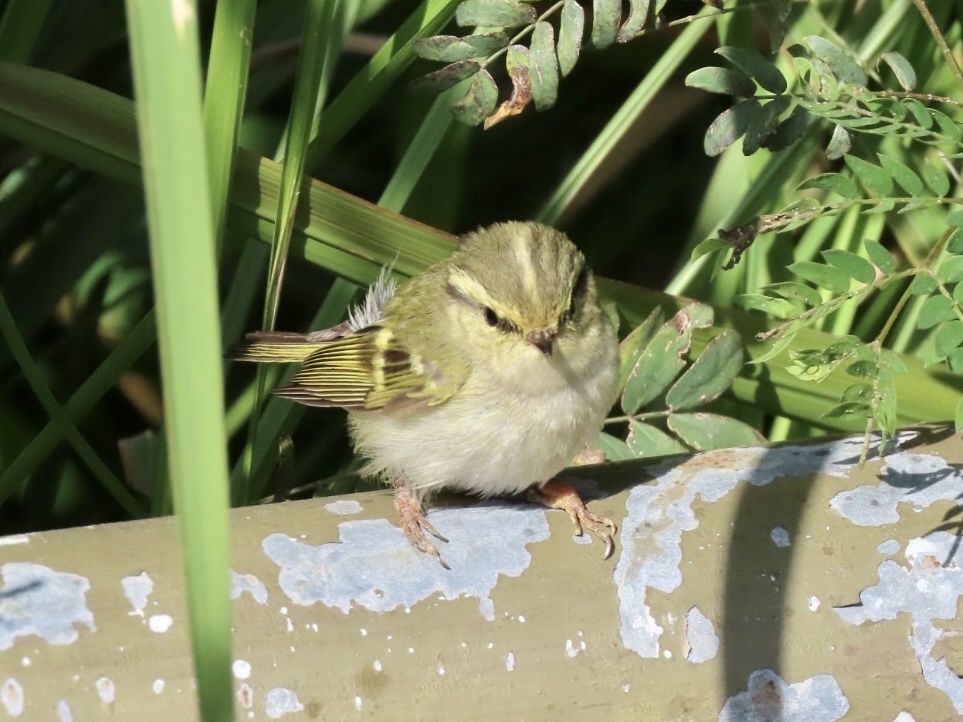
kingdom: Animalia
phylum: Chordata
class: Aves
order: Passeriformes
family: Phylloscopidae
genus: Phylloscopus
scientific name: Phylloscopus proregulus
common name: Pallas's leaf warbler
